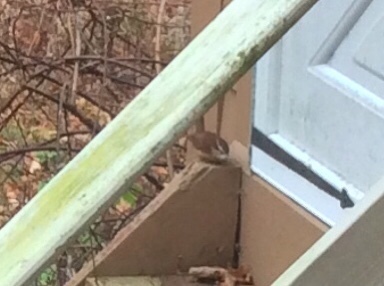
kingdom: Animalia
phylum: Chordata
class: Aves
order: Passeriformes
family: Troglodytidae
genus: Thryothorus
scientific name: Thryothorus ludovicianus
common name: Carolina wren
